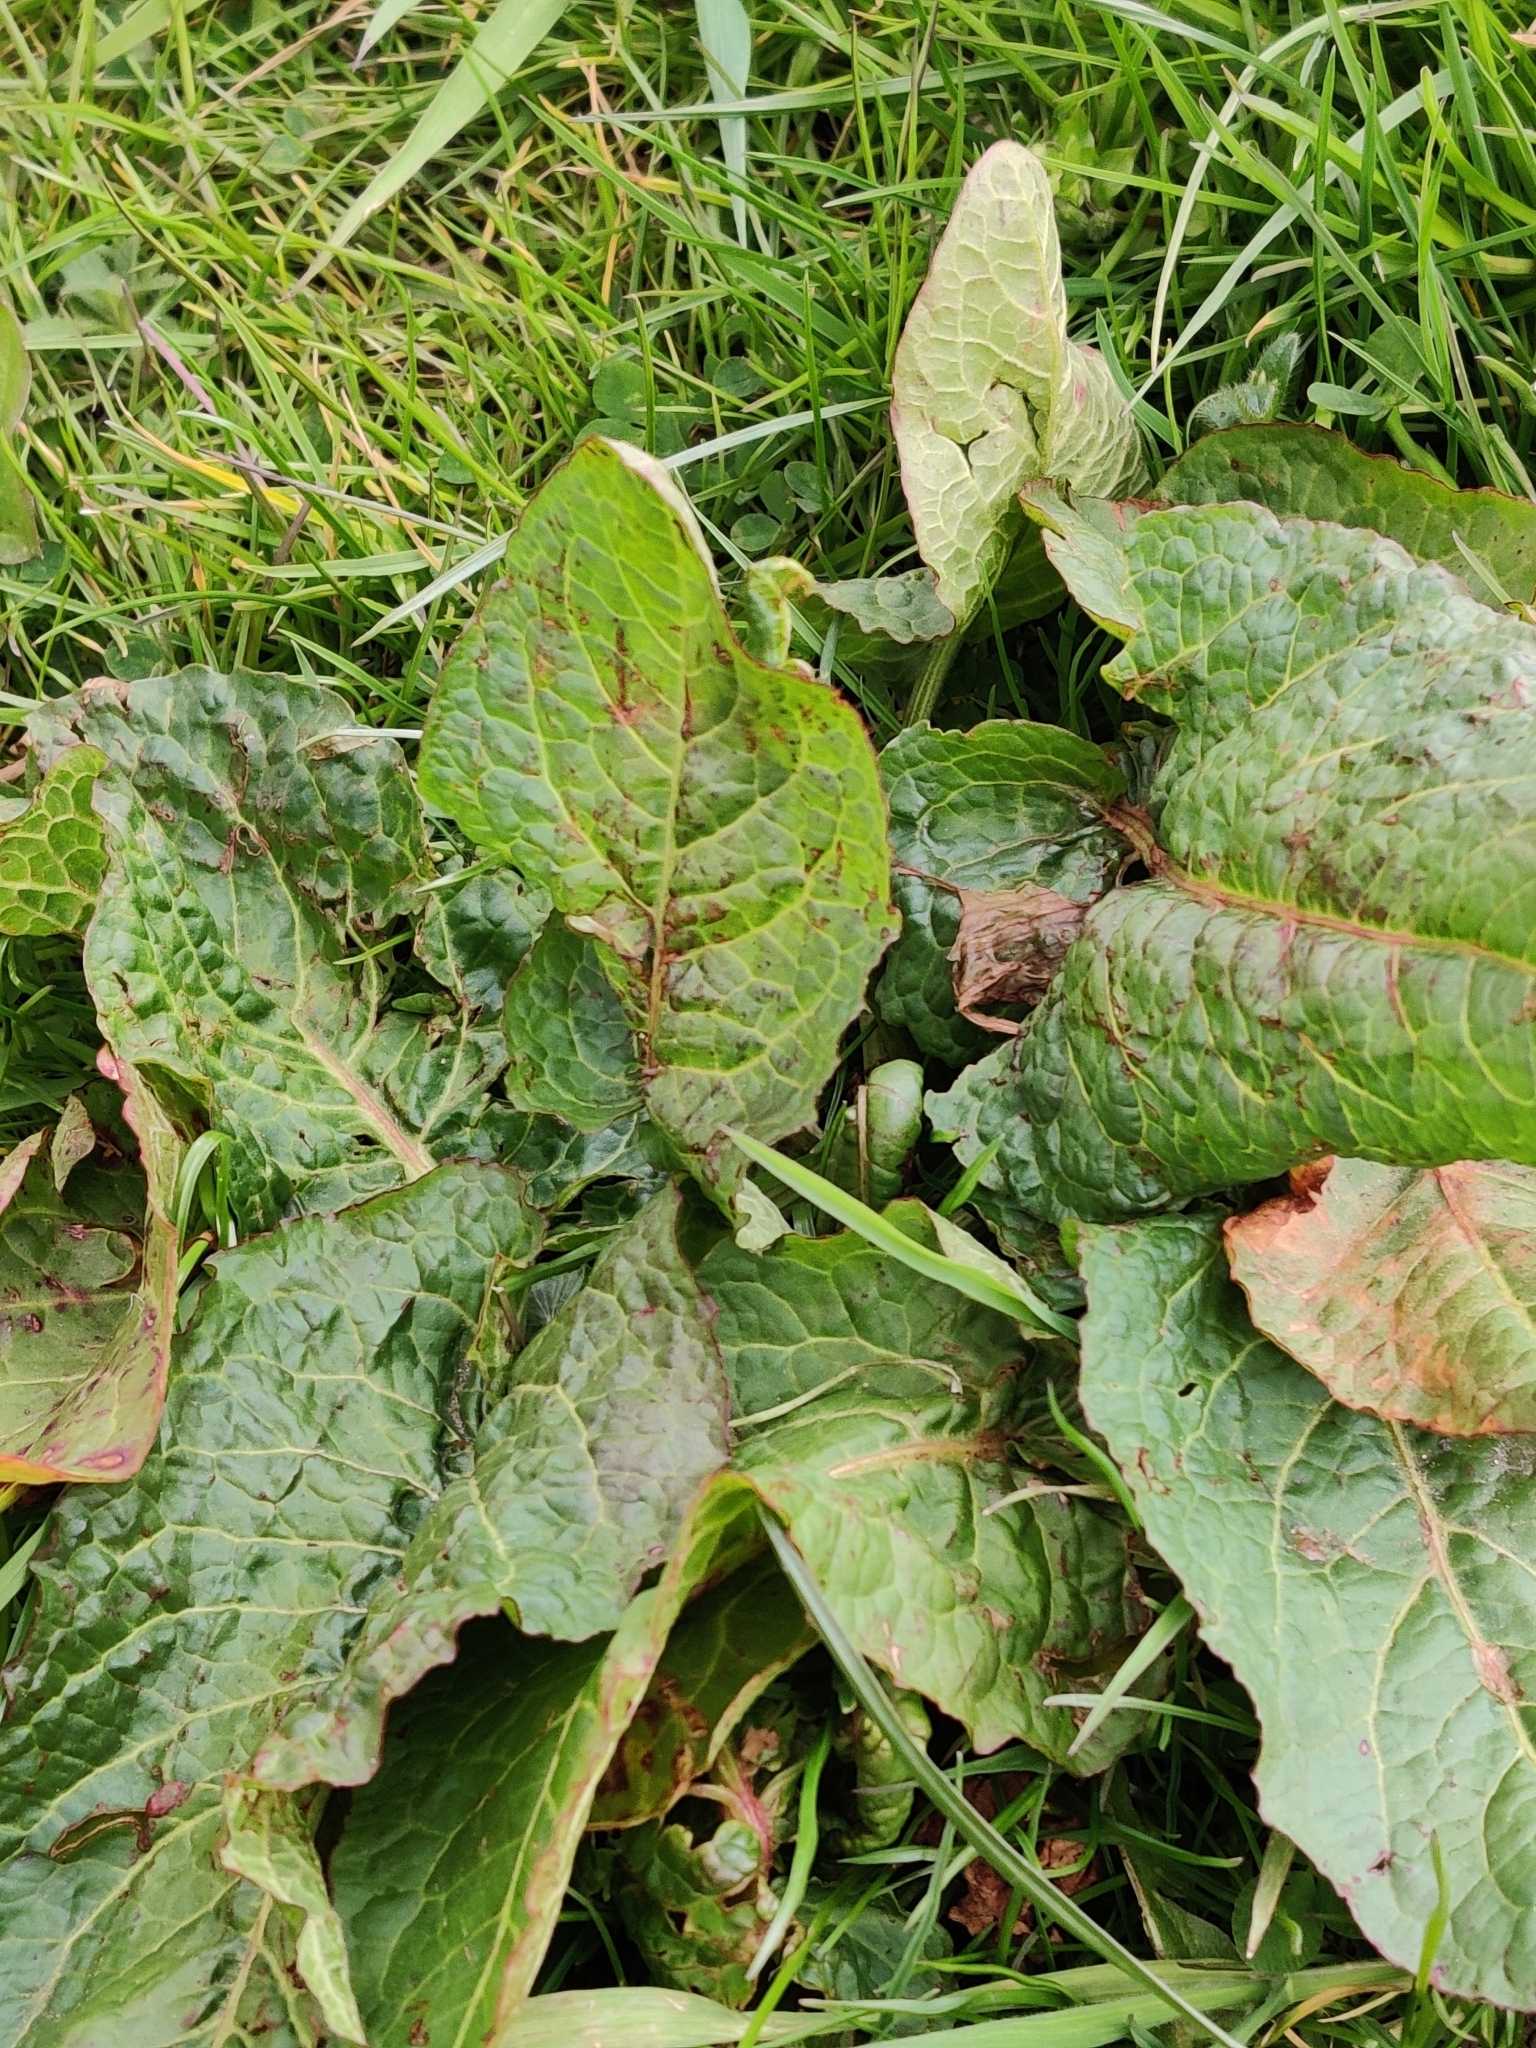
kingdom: Plantae
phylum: Tracheophyta
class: Magnoliopsida
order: Caryophyllales
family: Polygonaceae
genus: Rumex
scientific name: Rumex obtusifolius
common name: Bitter dock
